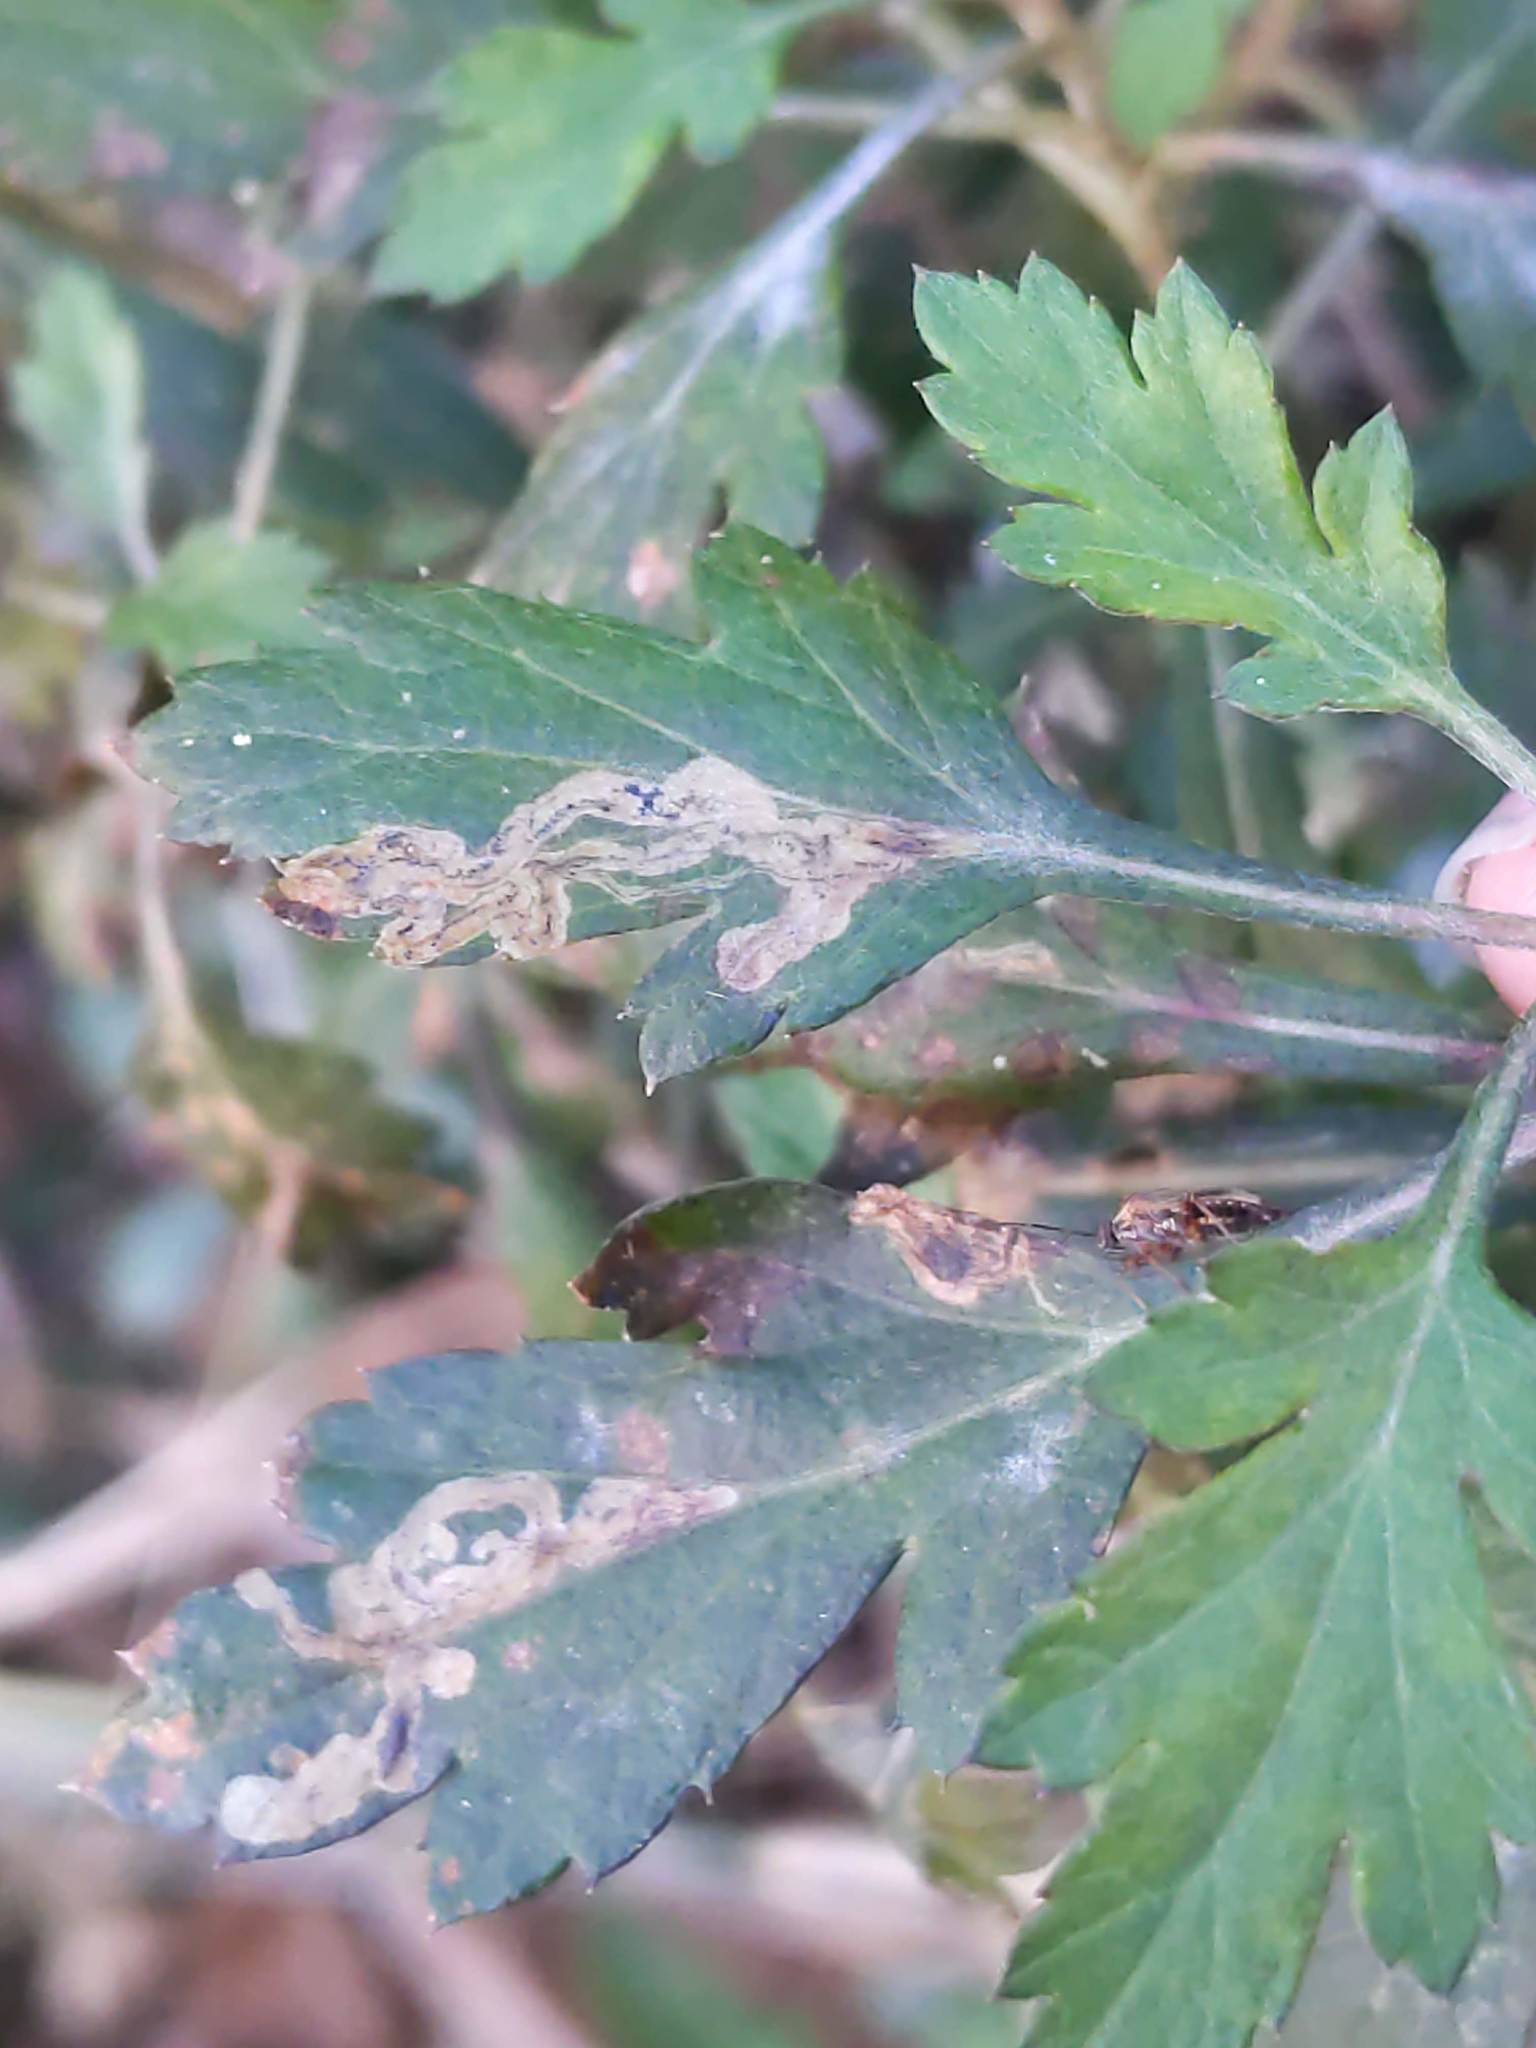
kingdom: Animalia
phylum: Arthropoda
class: Insecta
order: Diptera
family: Agromyzidae
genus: Liriomyza
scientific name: Liriomyza ptarmicae
